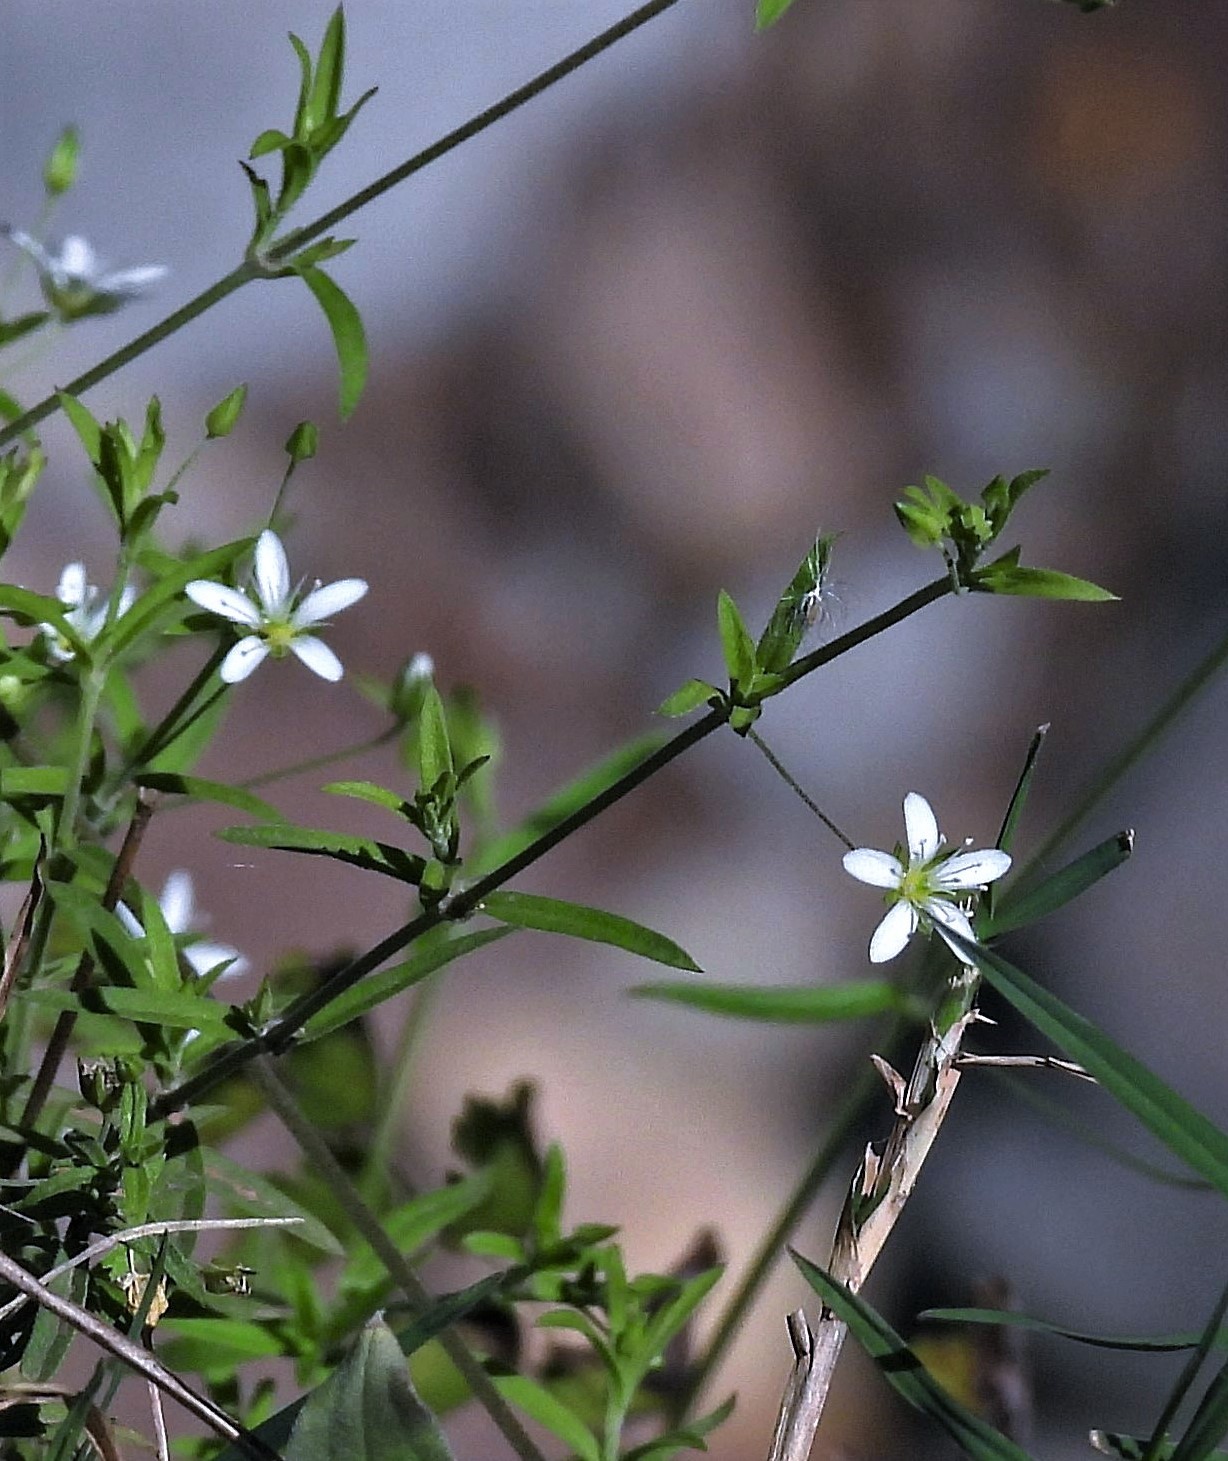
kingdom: Plantae
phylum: Tracheophyta
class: Magnoliopsida
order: Caryophyllales
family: Caryophyllaceae
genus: Arenaria
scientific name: Arenaria lanuginosa
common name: Spread sandwort
